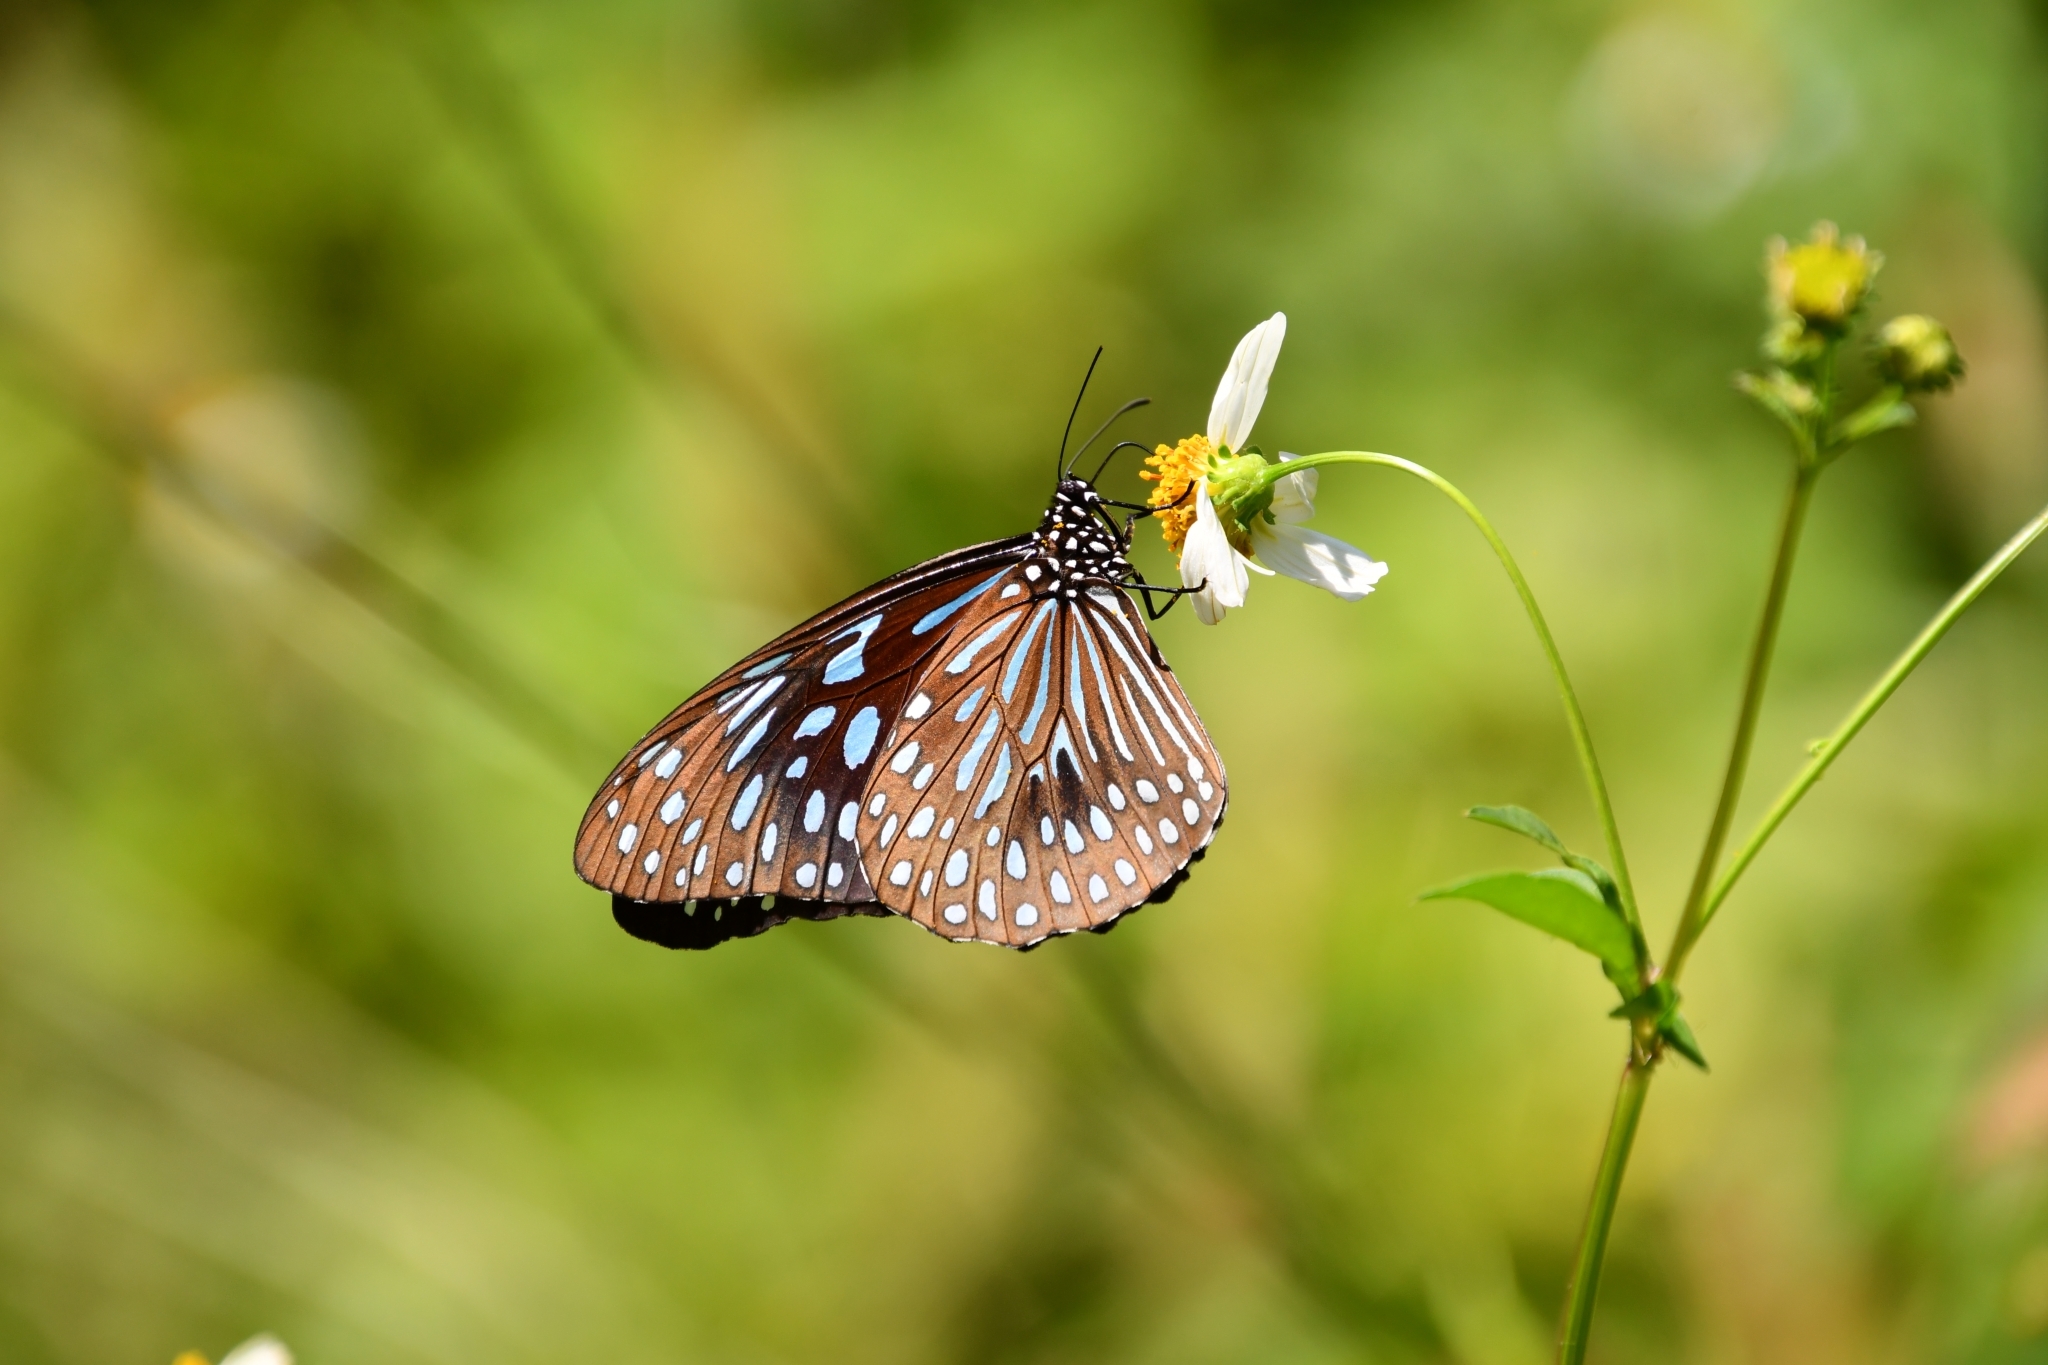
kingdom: Animalia
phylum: Arthropoda
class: Insecta
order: Lepidoptera
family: Nymphalidae
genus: Tirumala
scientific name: Tirumala septentrionis
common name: Dark blue tiger butterfly
